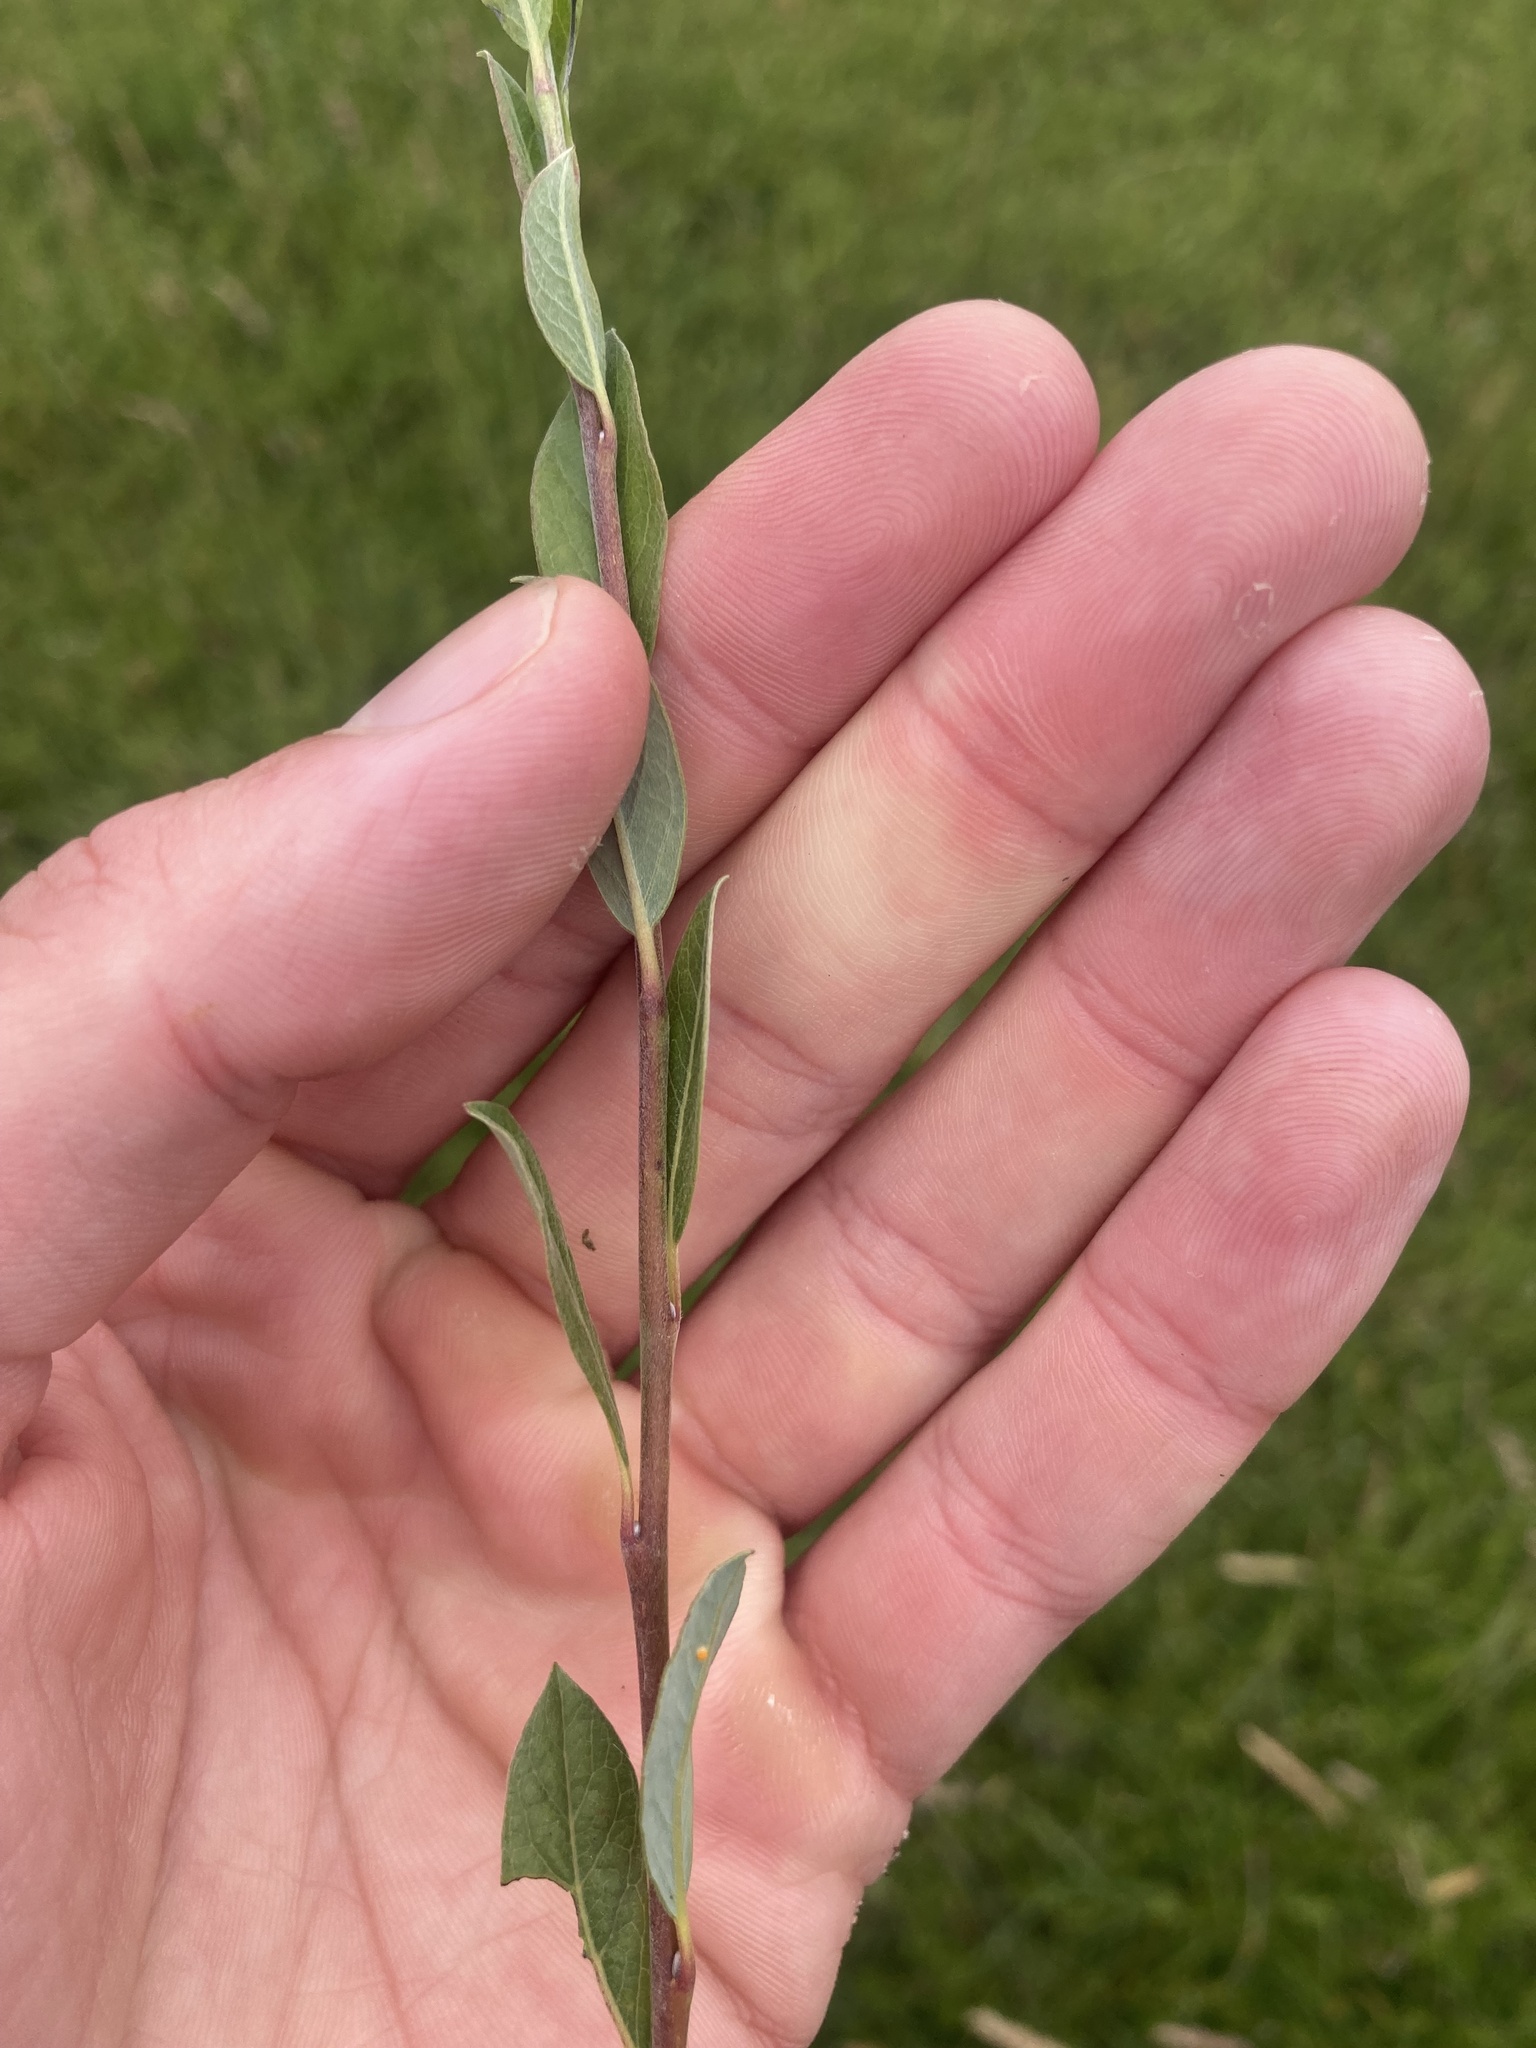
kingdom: Plantae
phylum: Tracheophyta
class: Magnoliopsida
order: Malpighiales
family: Salicaceae
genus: Salix
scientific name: Salix repens
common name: Creeping willow
